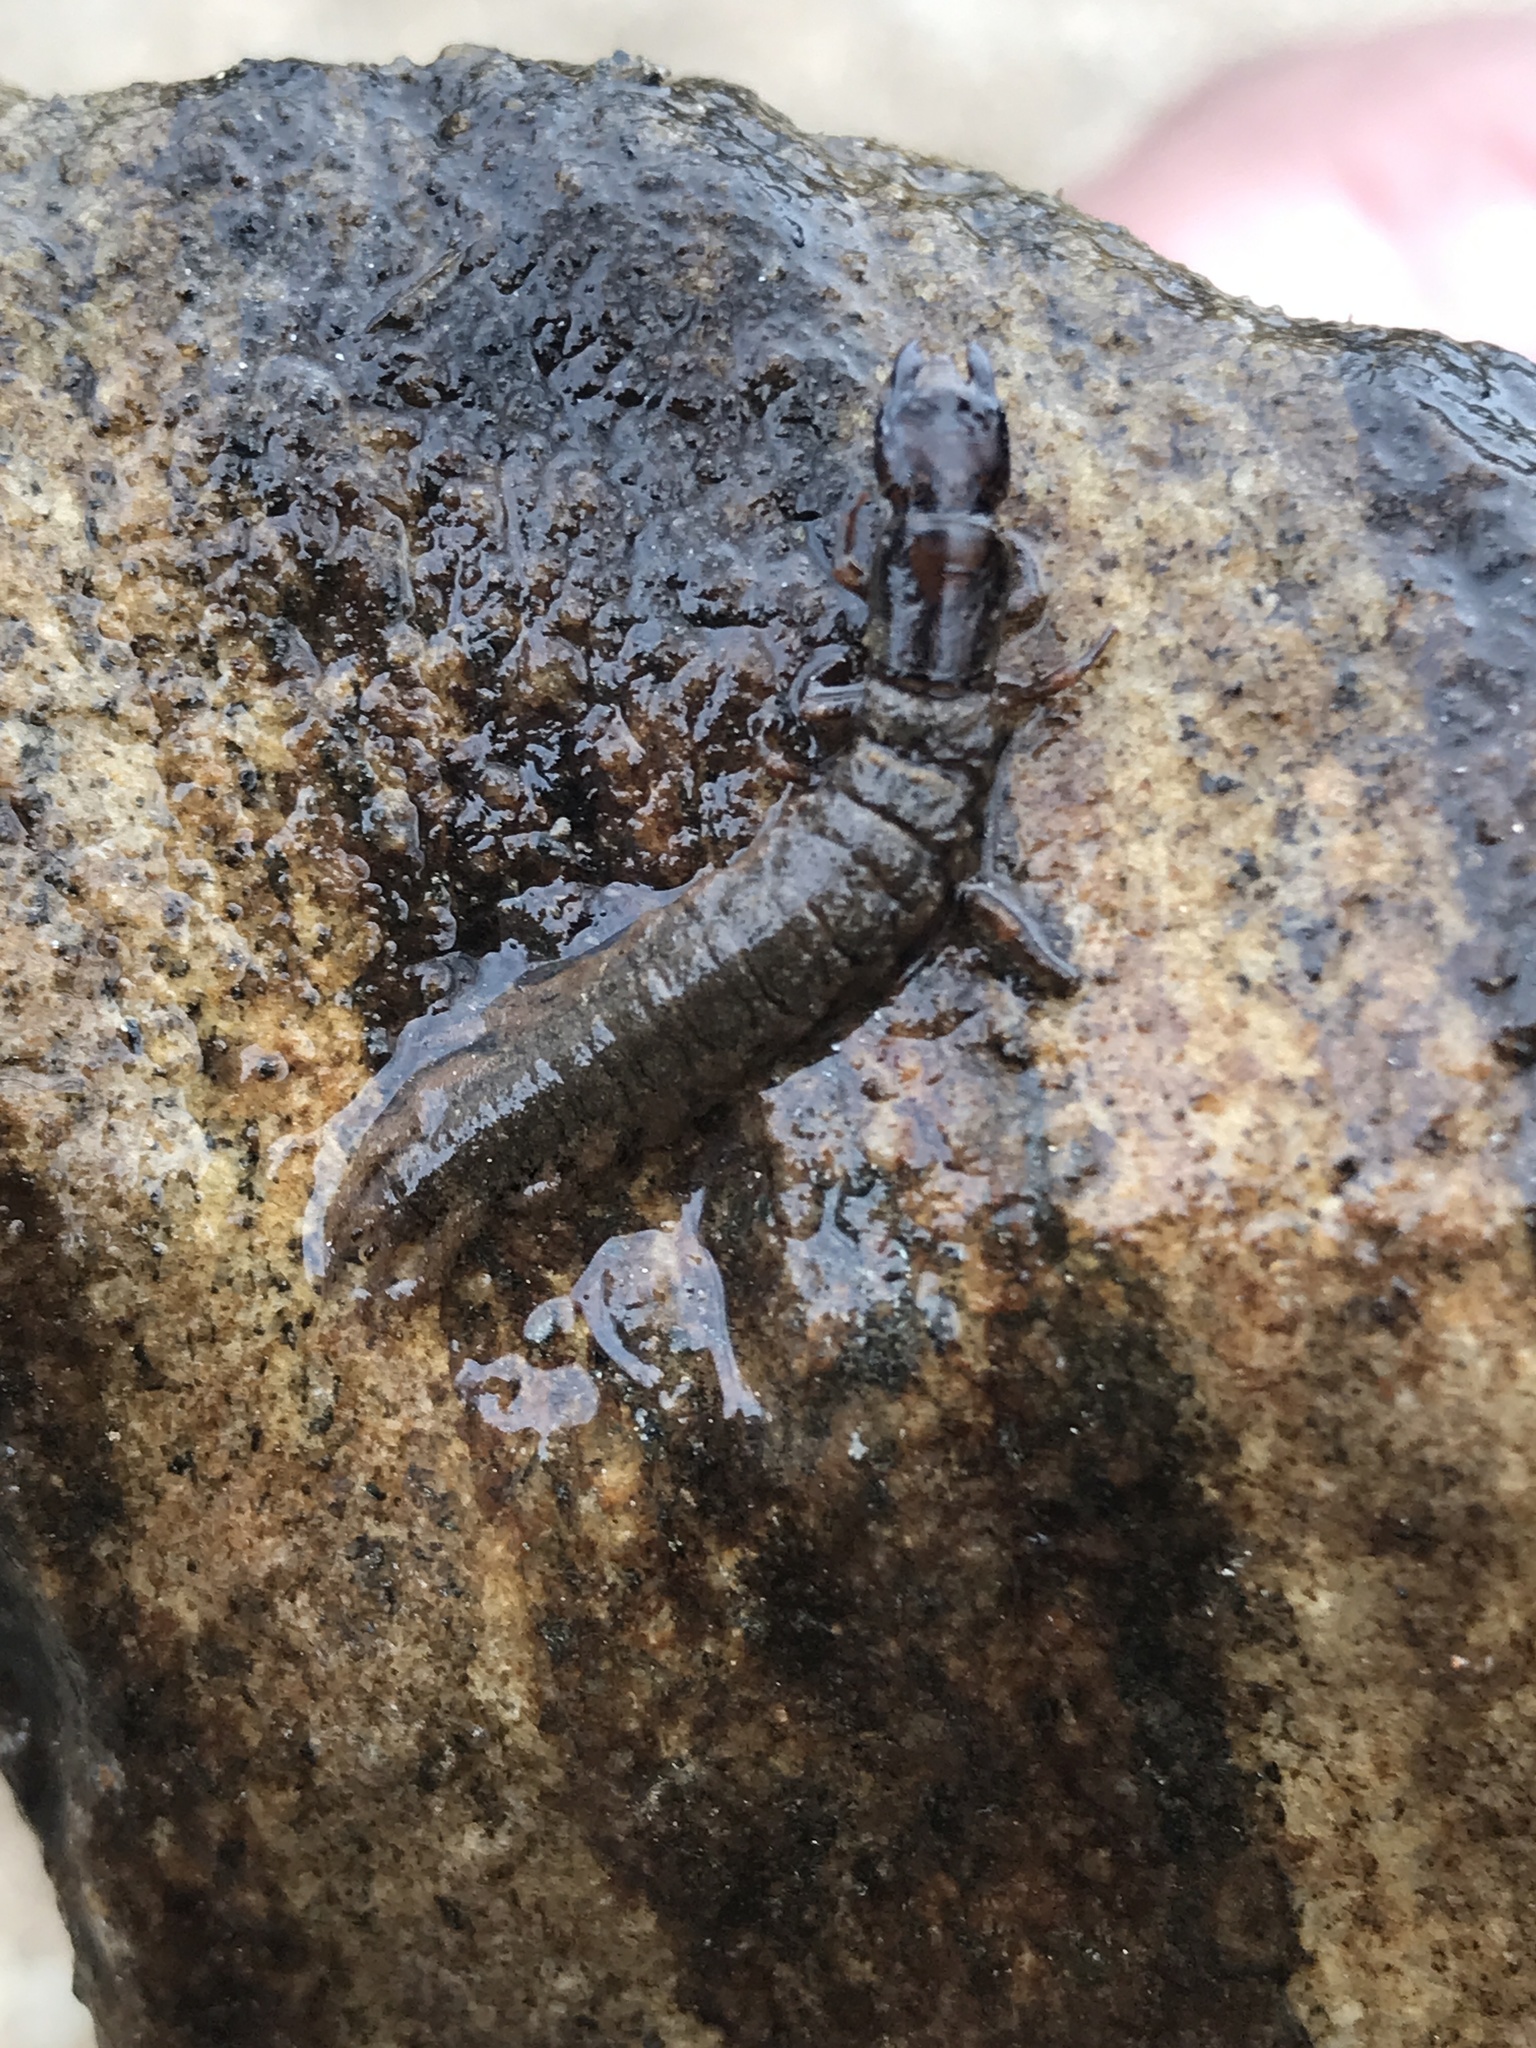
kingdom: Animalia
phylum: Arthropoda
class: Insecta
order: Megaloptera
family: Corydalidae
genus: Corydalus
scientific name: Corydalus cornutus
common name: Dobsonfly
